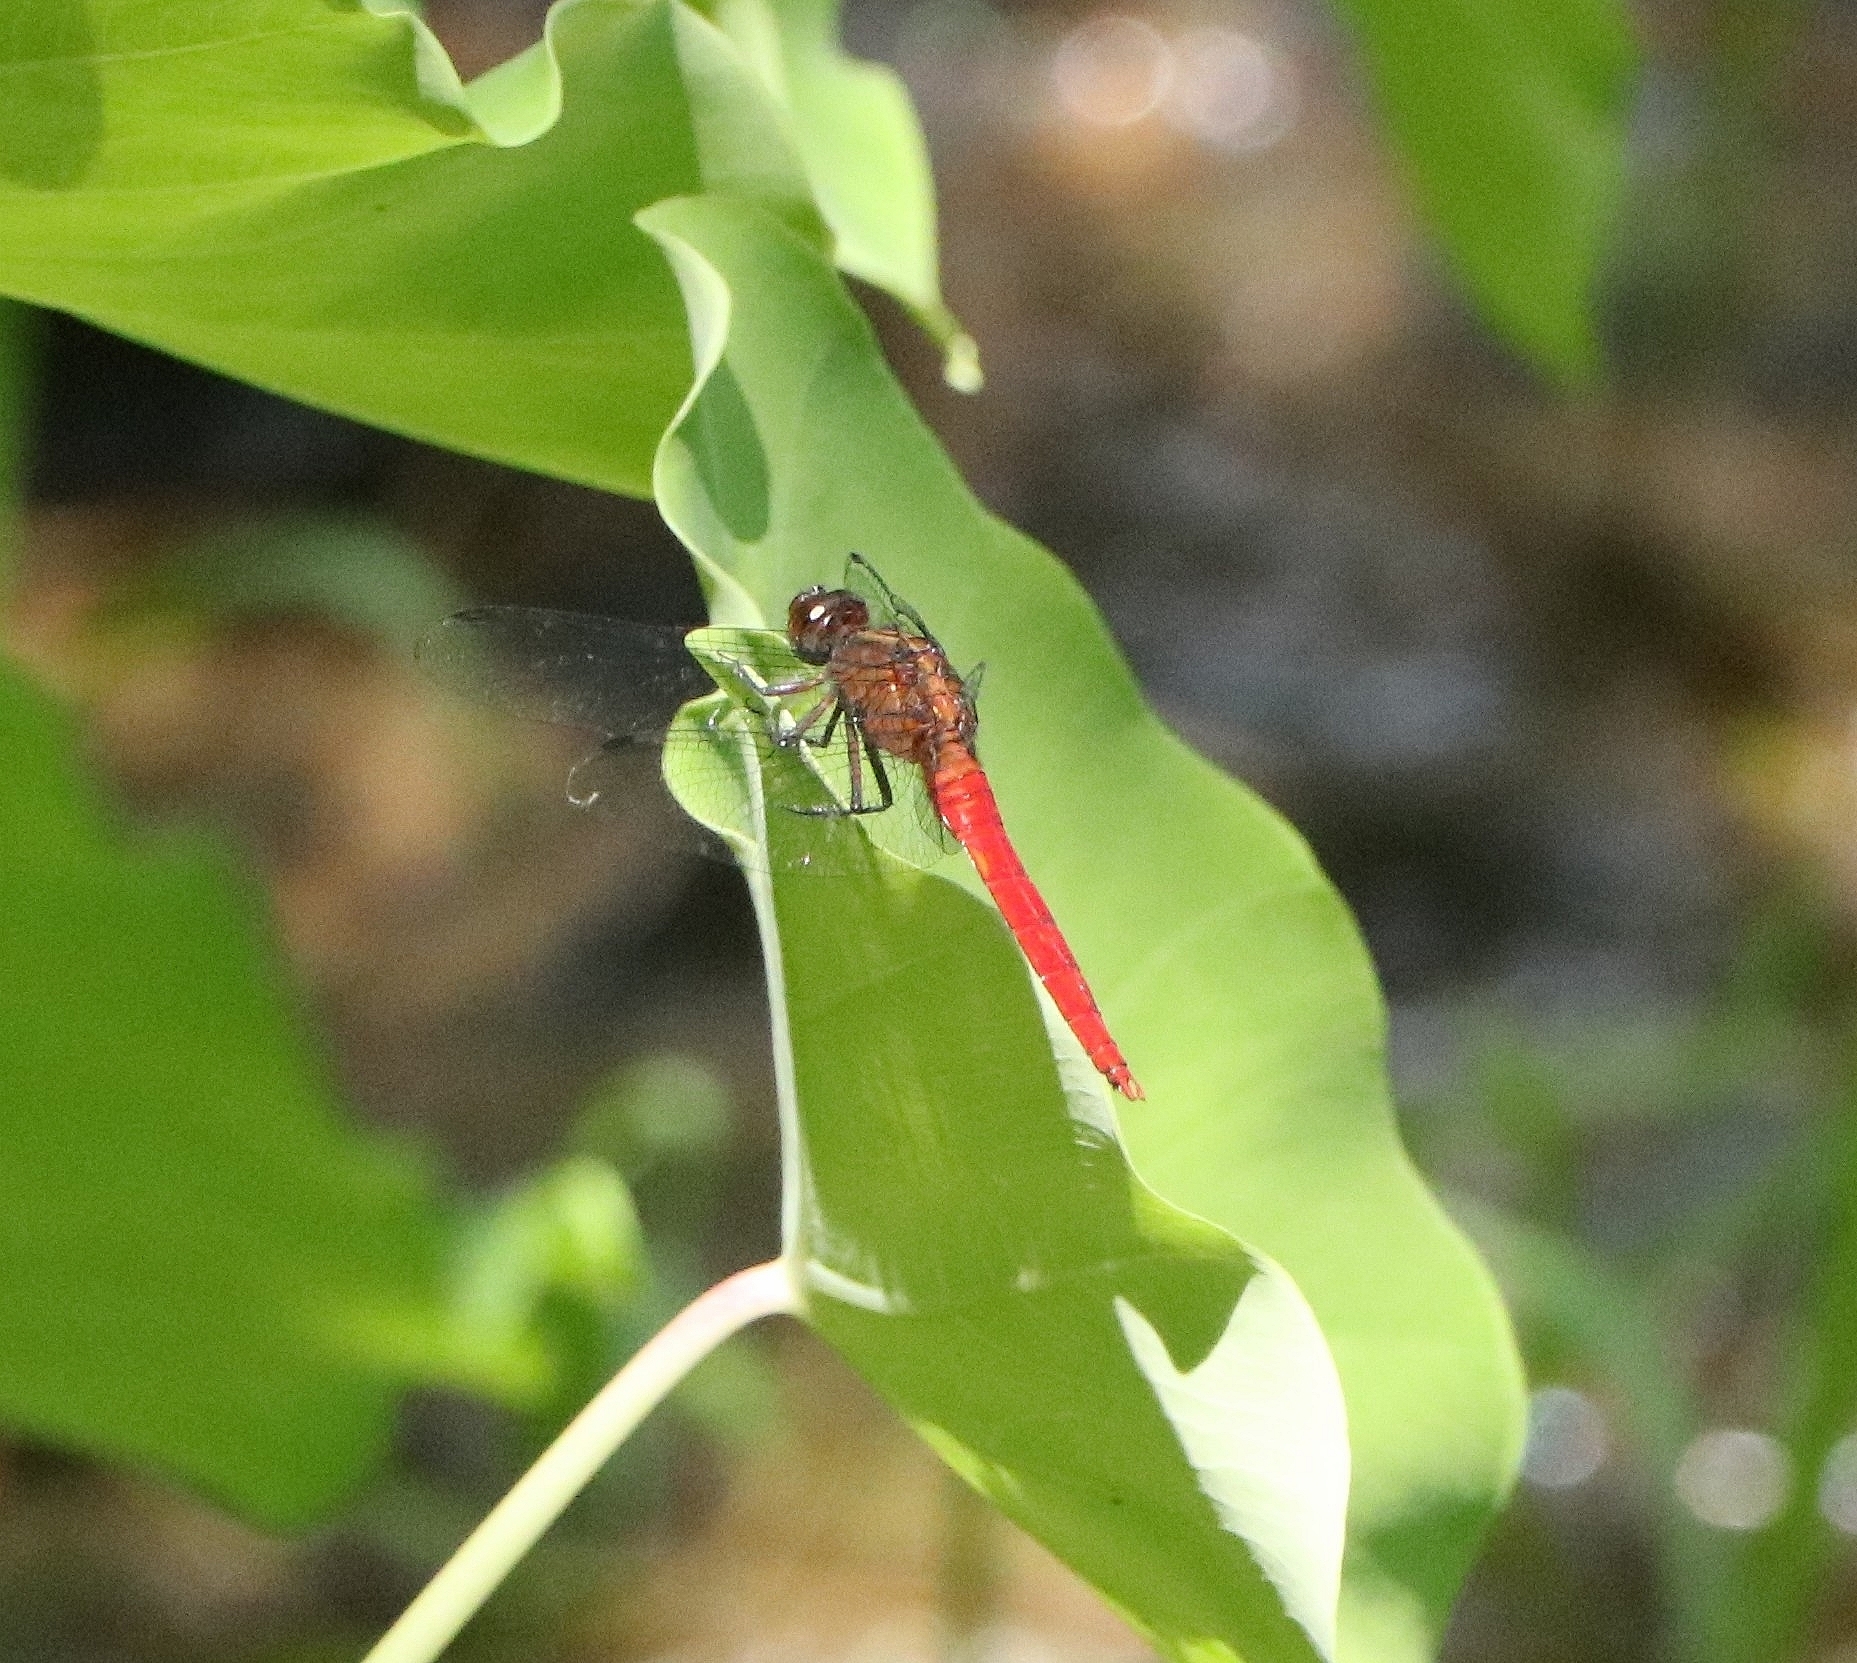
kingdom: Animalia
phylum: Arthropoda
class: Insecta
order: Odonata
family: Libellulidae
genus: Orthetrum
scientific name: Orthetrum chrysis
